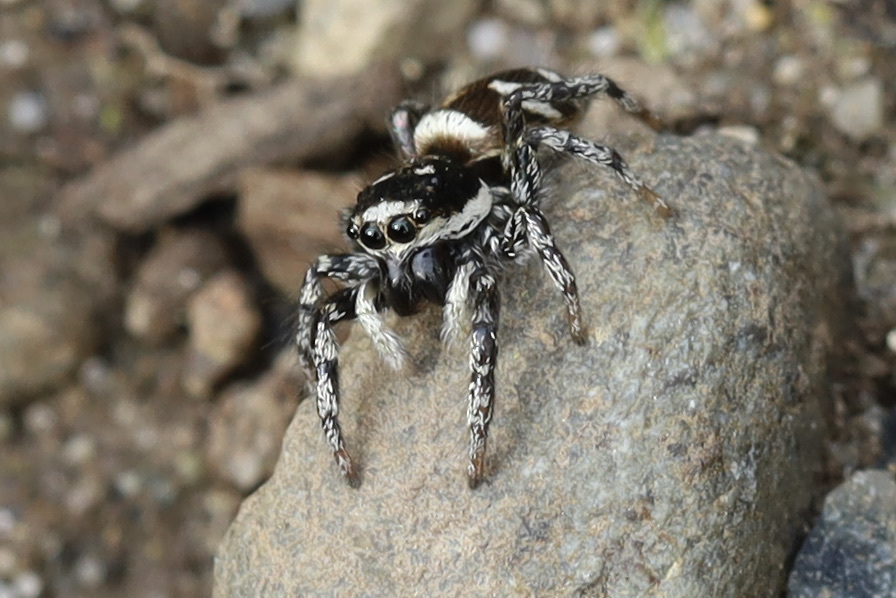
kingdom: Animalia
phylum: Arthropoda
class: Arachnida
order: Araneae
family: Salticidae
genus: Salticus
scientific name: Salticus scenicus
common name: Zebra jumper
